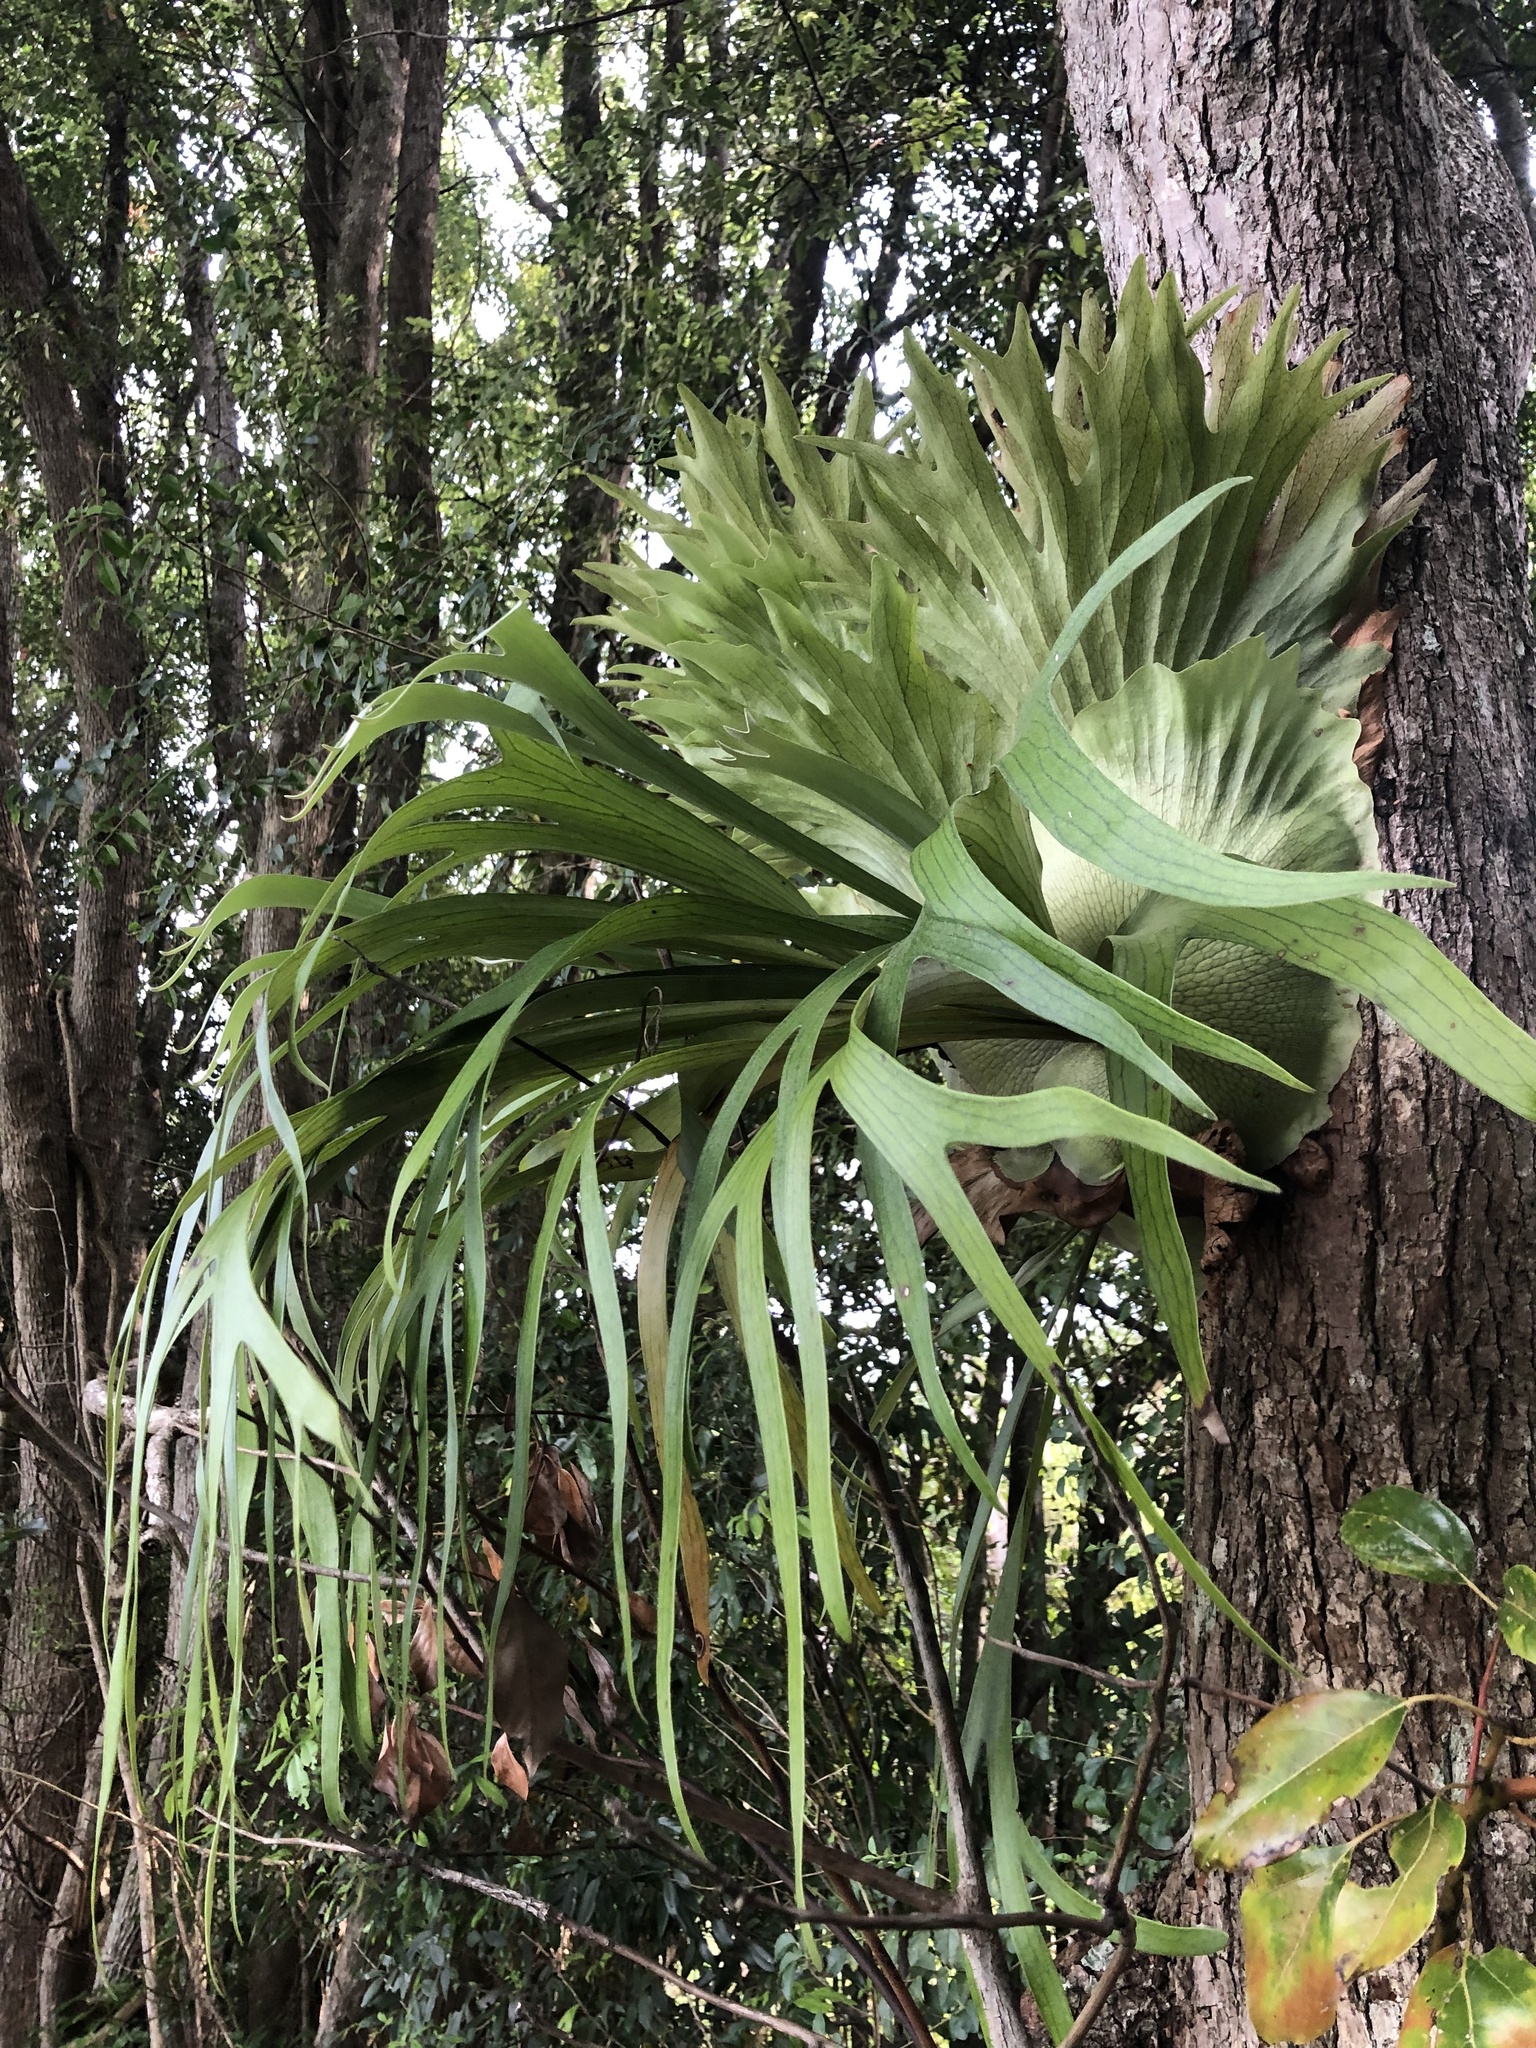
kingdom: Plantae
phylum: Tracheophyta
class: Polypodiopsida
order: Polypodiales
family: Polypodiaceae
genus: Platycerium
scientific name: Platycerium bifurcatum
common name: Elkhorn fern
